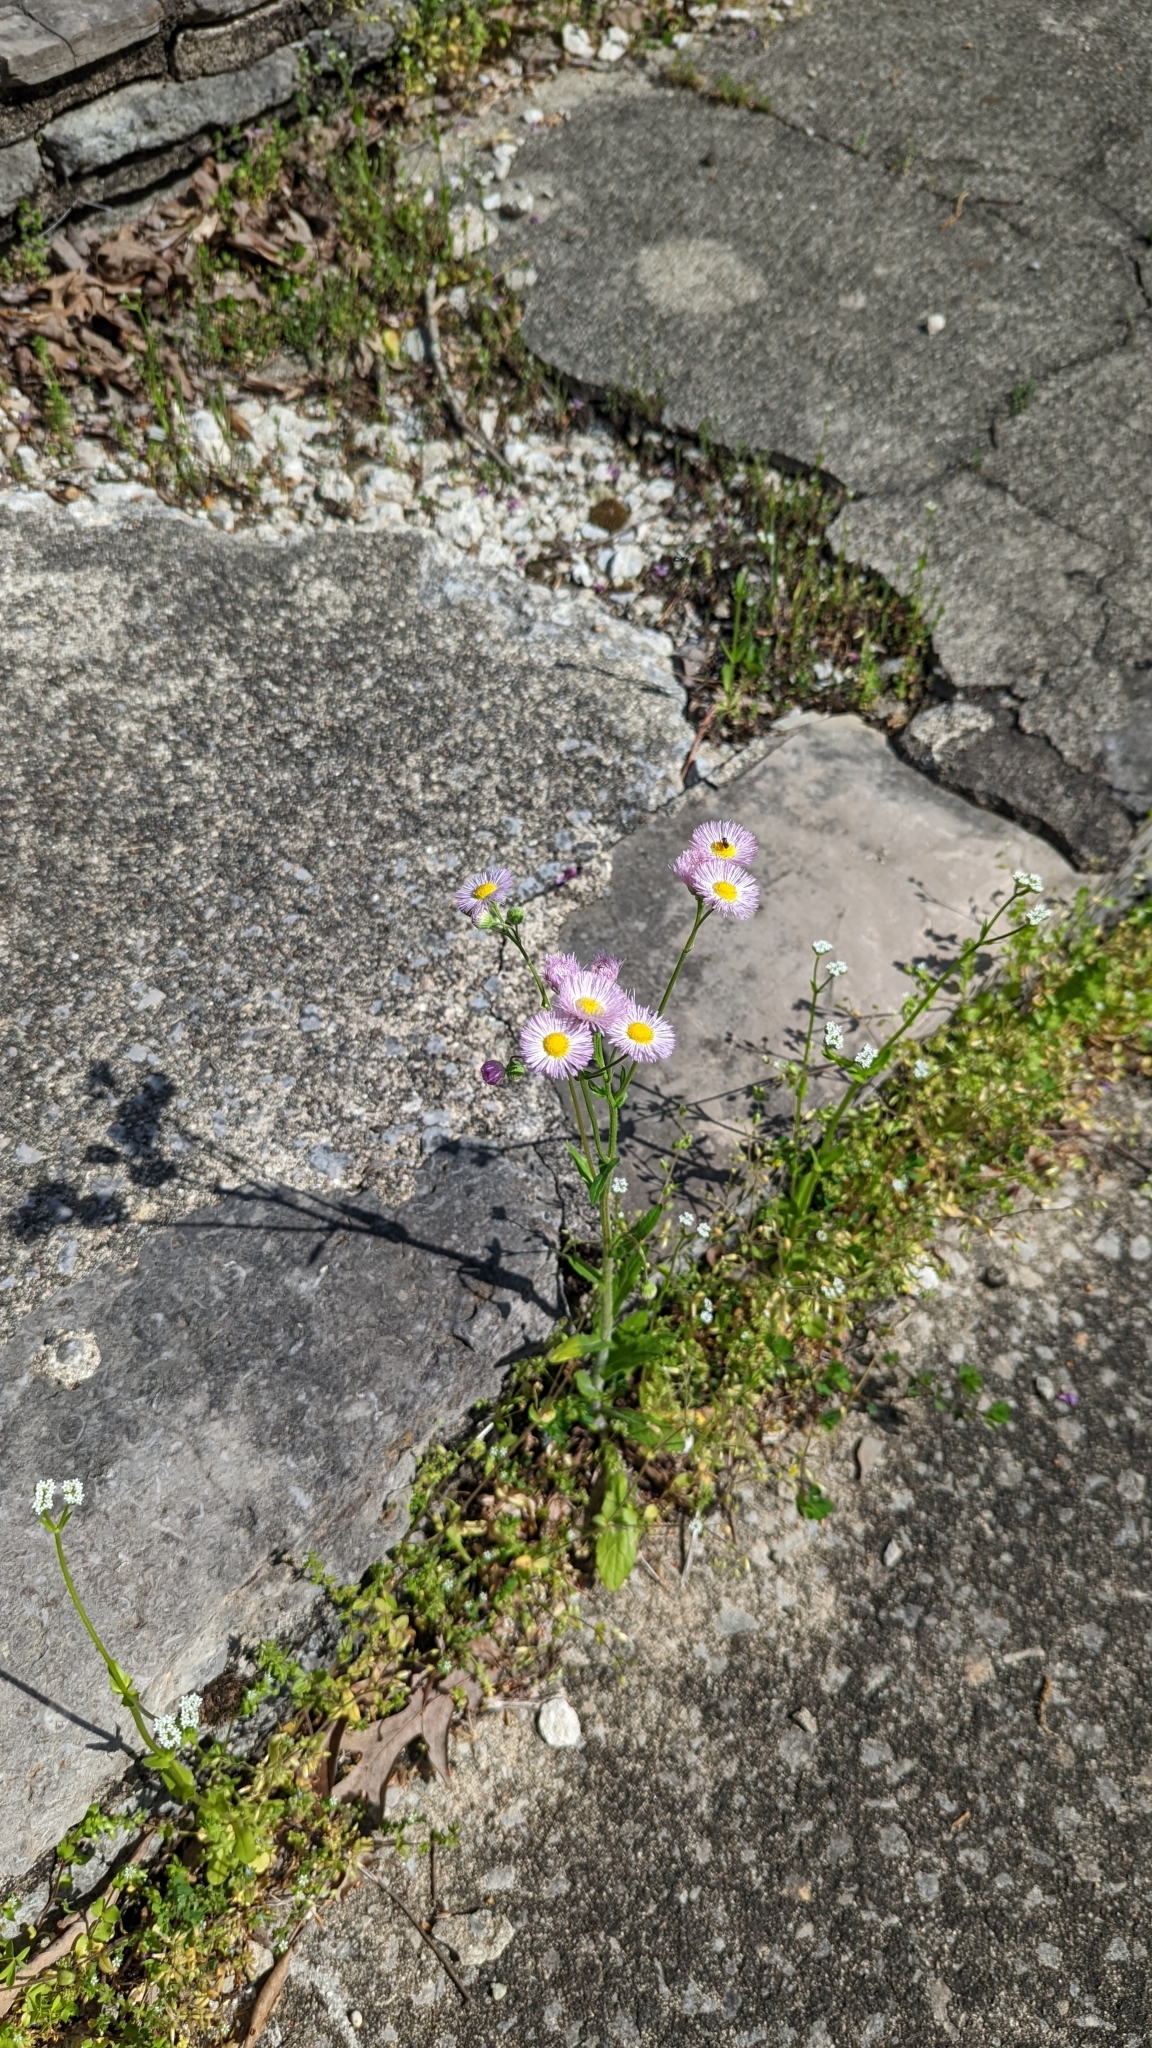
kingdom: Plantae
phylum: Tracheophyta
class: Magnoliopsida
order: Asterales
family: Asteraceae
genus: Erigeron
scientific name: Erigeron philadelphicus
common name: Robin's-plantain
